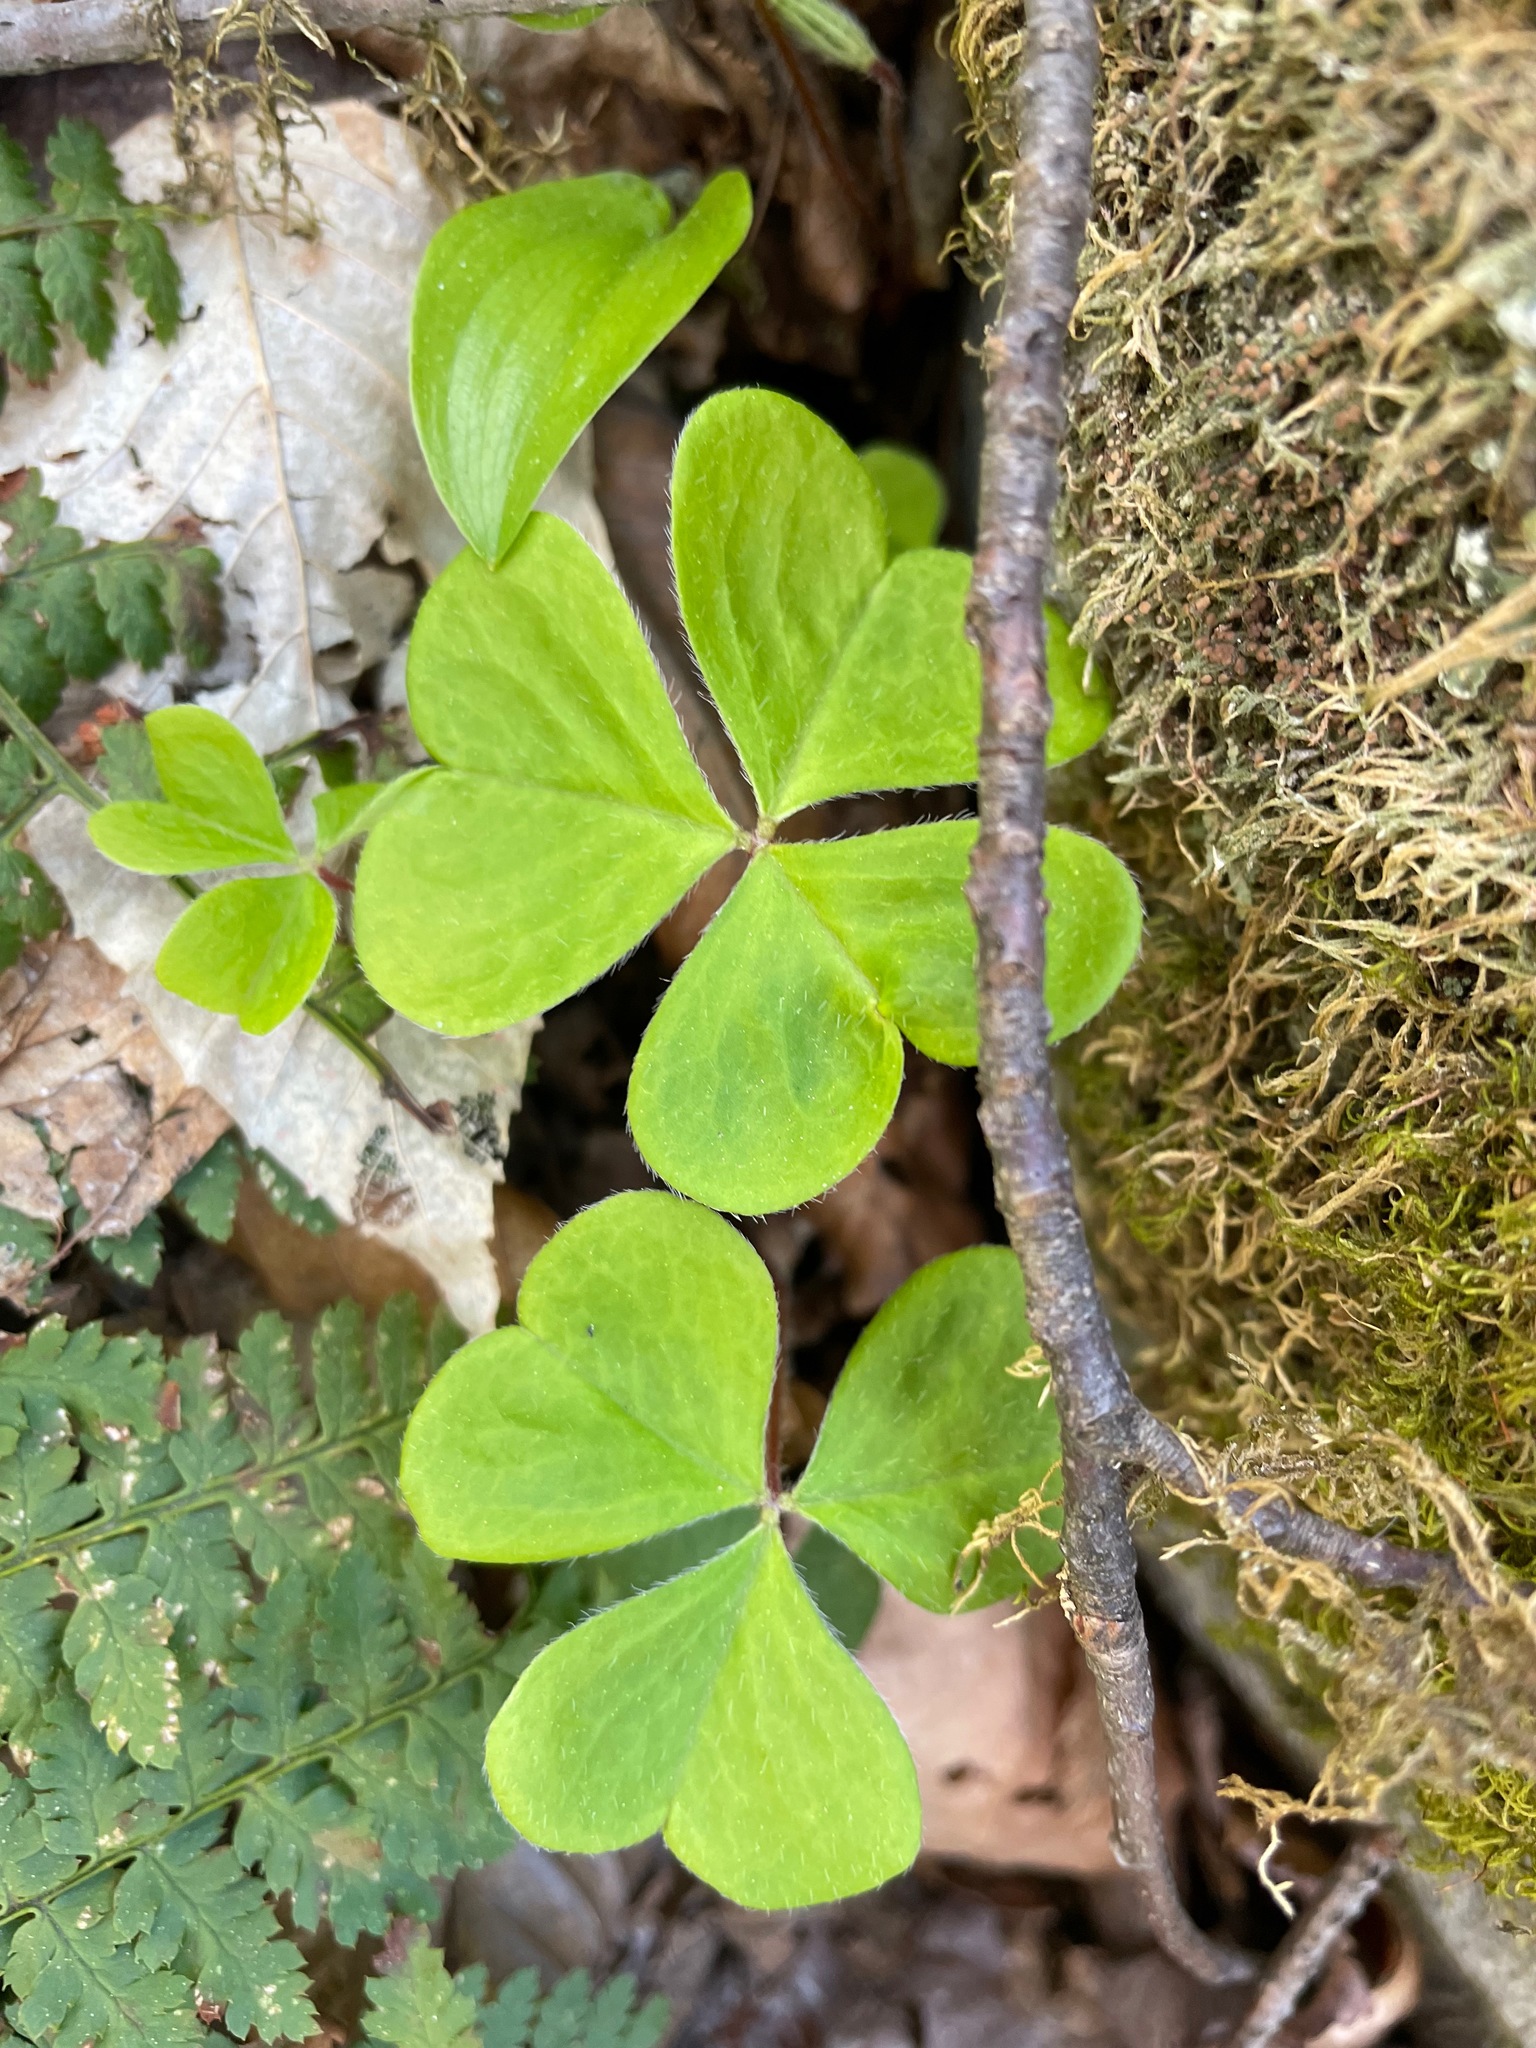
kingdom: Plantae
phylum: Tracheophyta
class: Magnoliopsida
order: Oxalidales
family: Oxalidaceae
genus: Oxalis
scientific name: Oxalis montana
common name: American wood-sorrel
